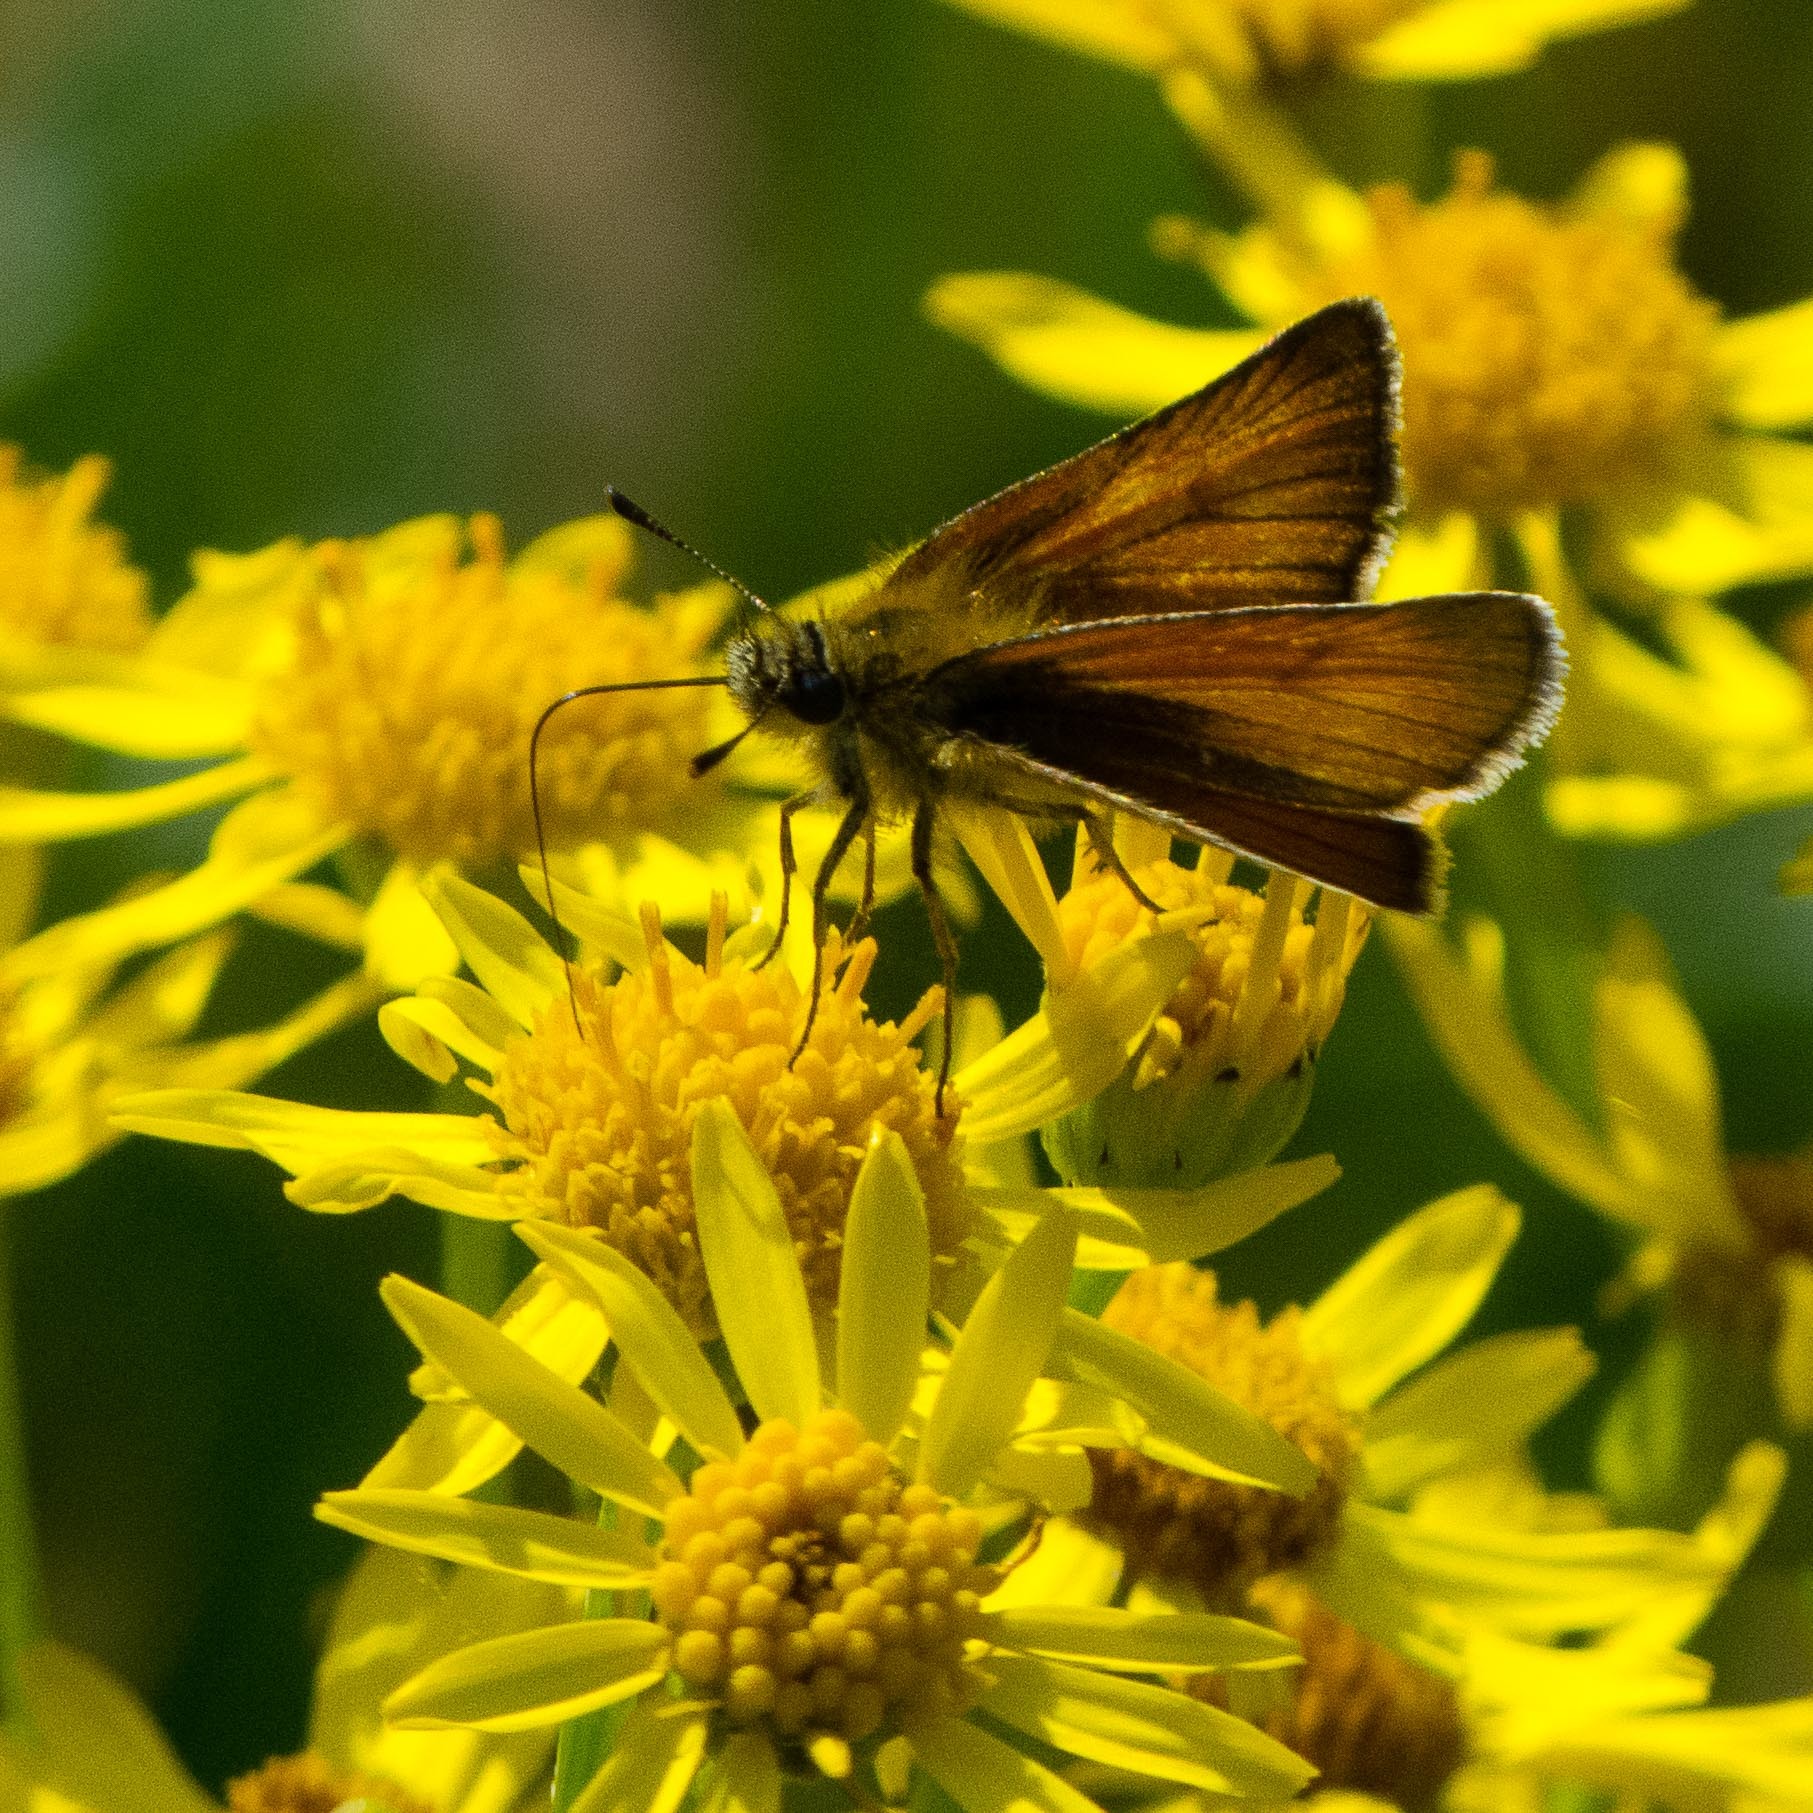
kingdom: Animalia
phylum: Arthropoda
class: Insecta
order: Lepidoptera
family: Hesperiidae
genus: Thymelicus
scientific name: Thymelicus sylvestris
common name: Small skipper
